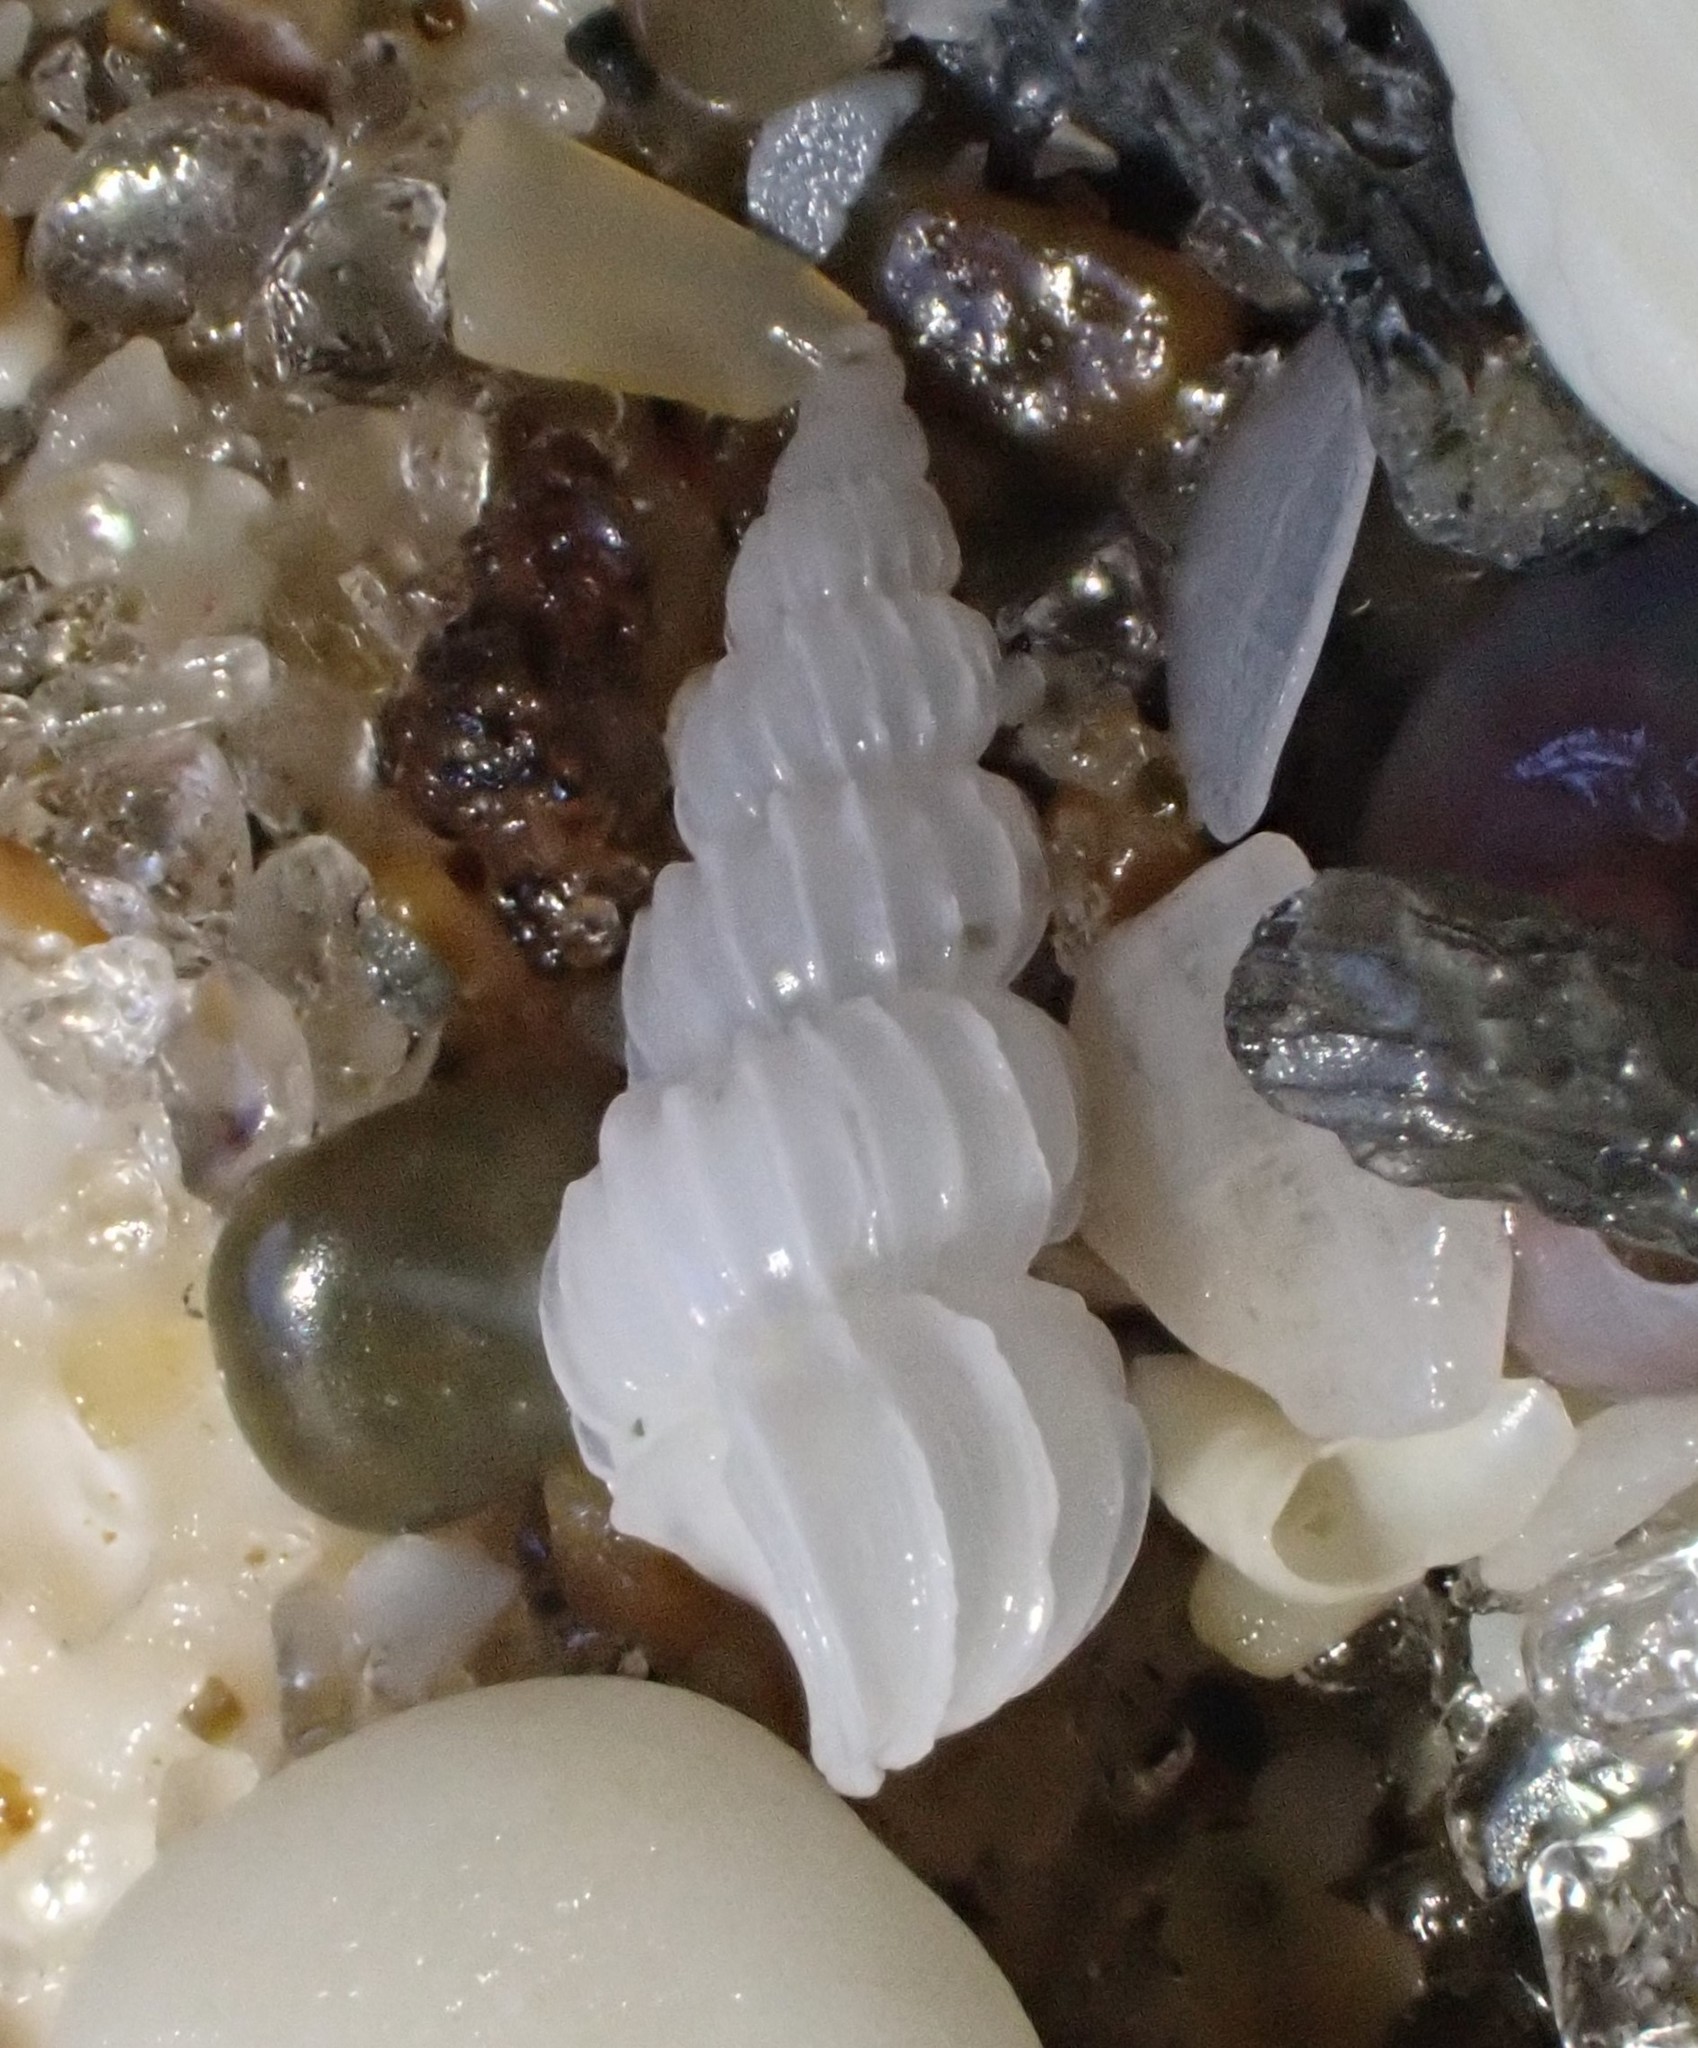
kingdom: Animalia
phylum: Mollusca
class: Gastropoda
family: Epitoniidae
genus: Epitonium
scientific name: Epitonium jukesianum
